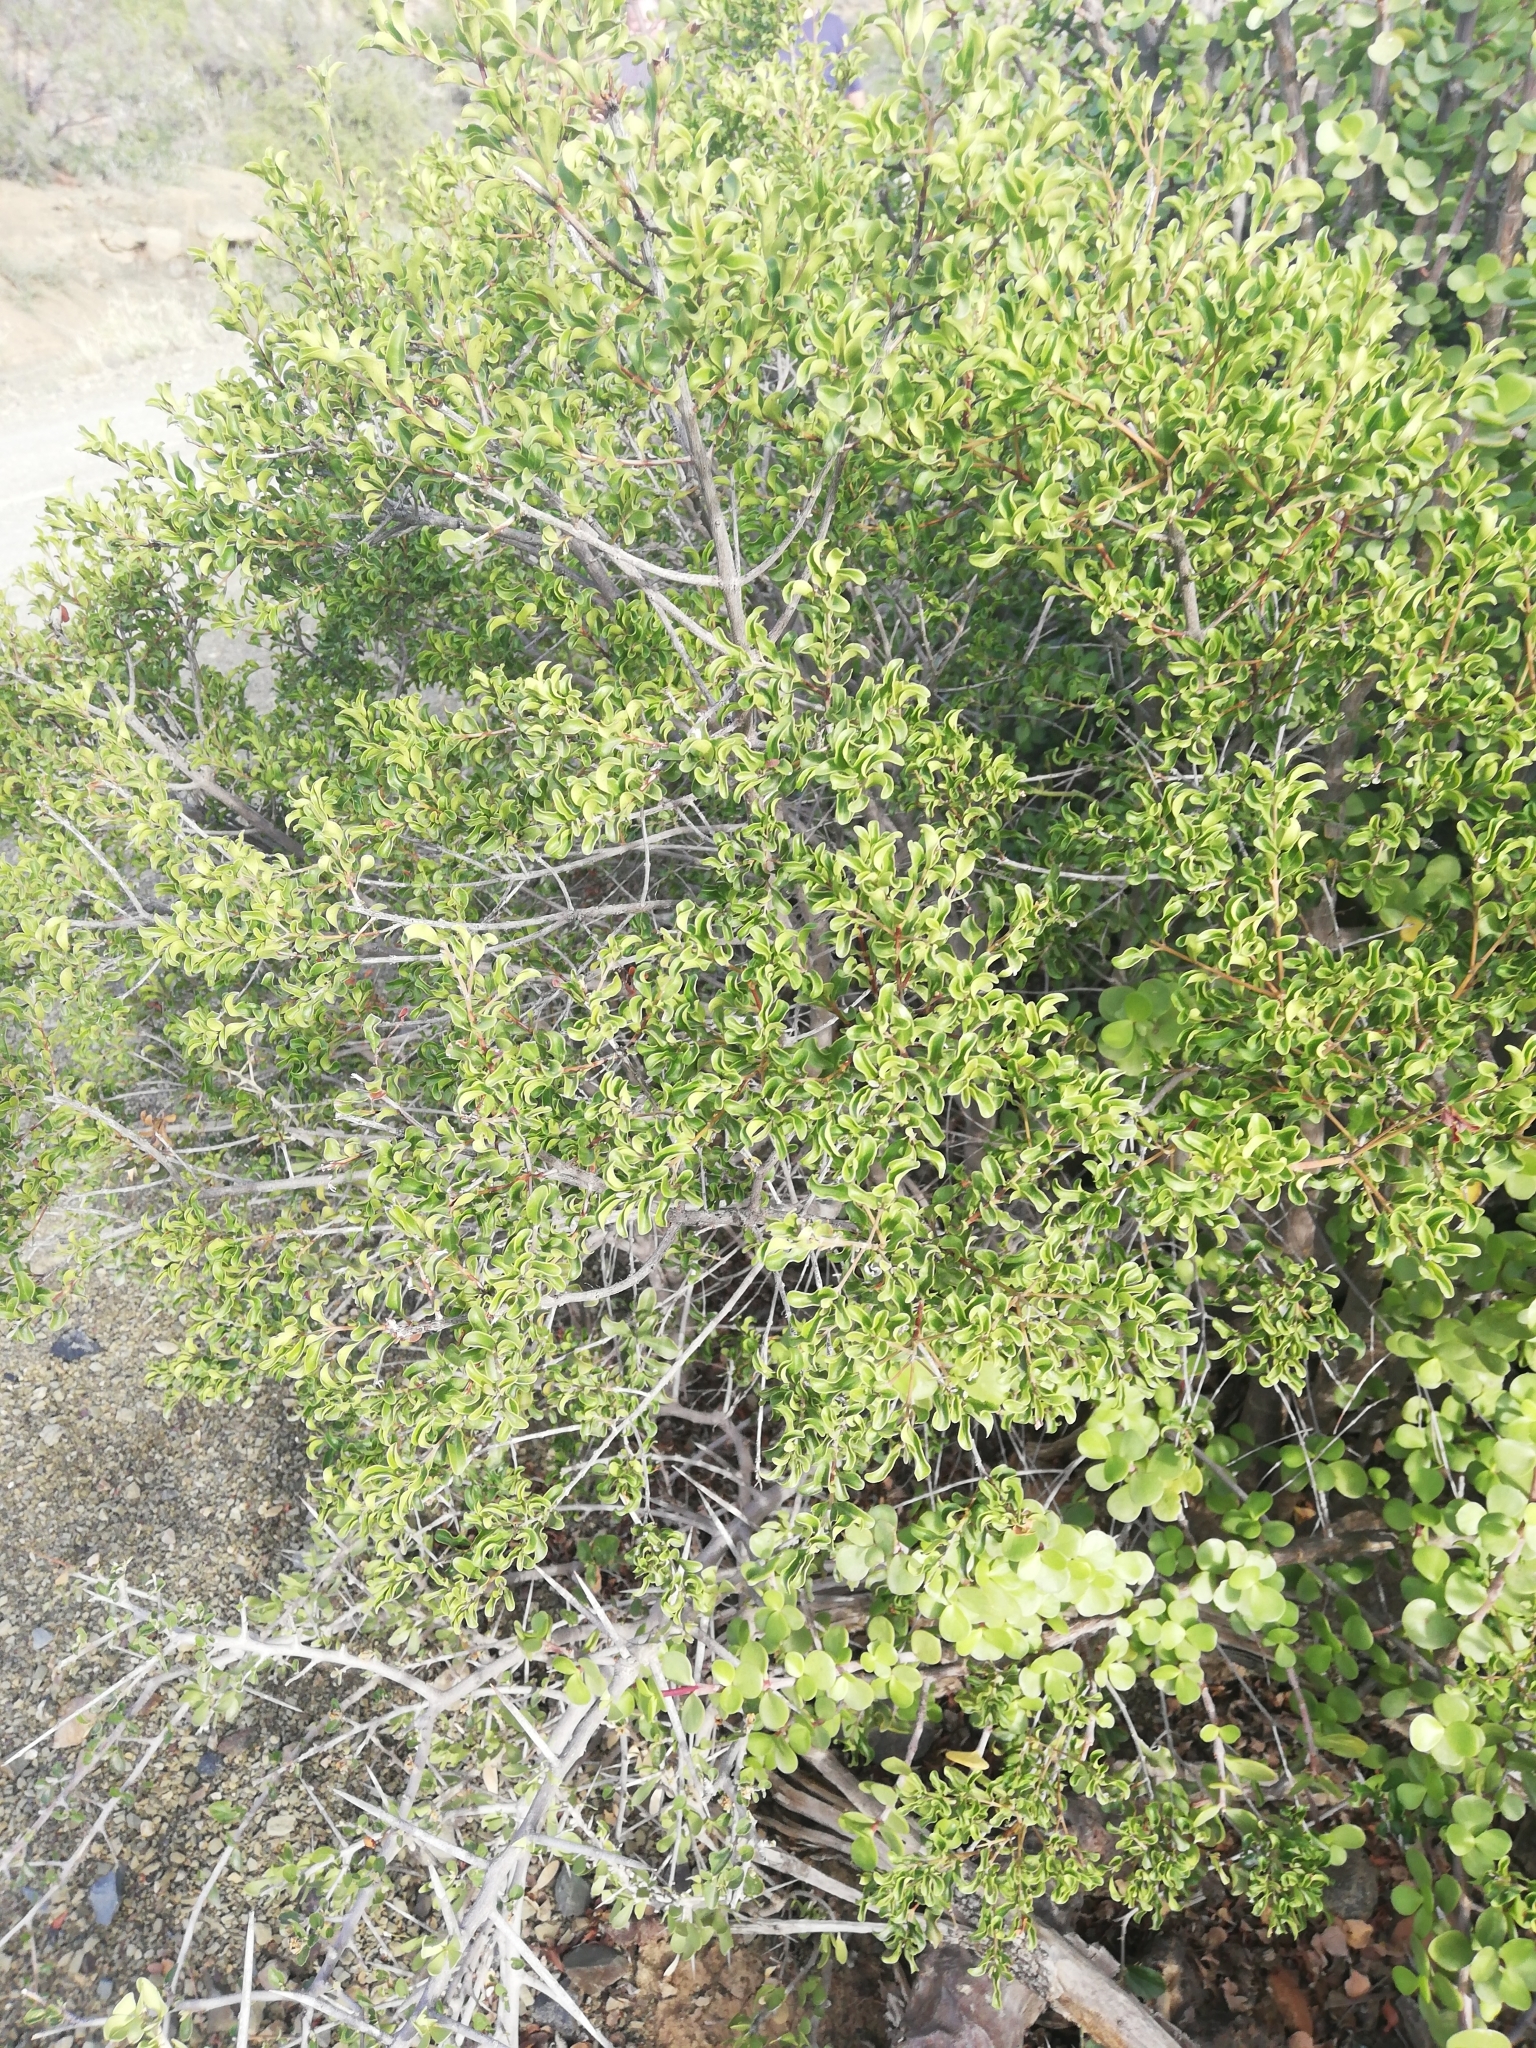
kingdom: Plantae
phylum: Tracheophyta
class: Magnoliopsida
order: Ericales
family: Ebenaceae
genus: Euclea
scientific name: Euclea undulata
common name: Small-leaved guarri
